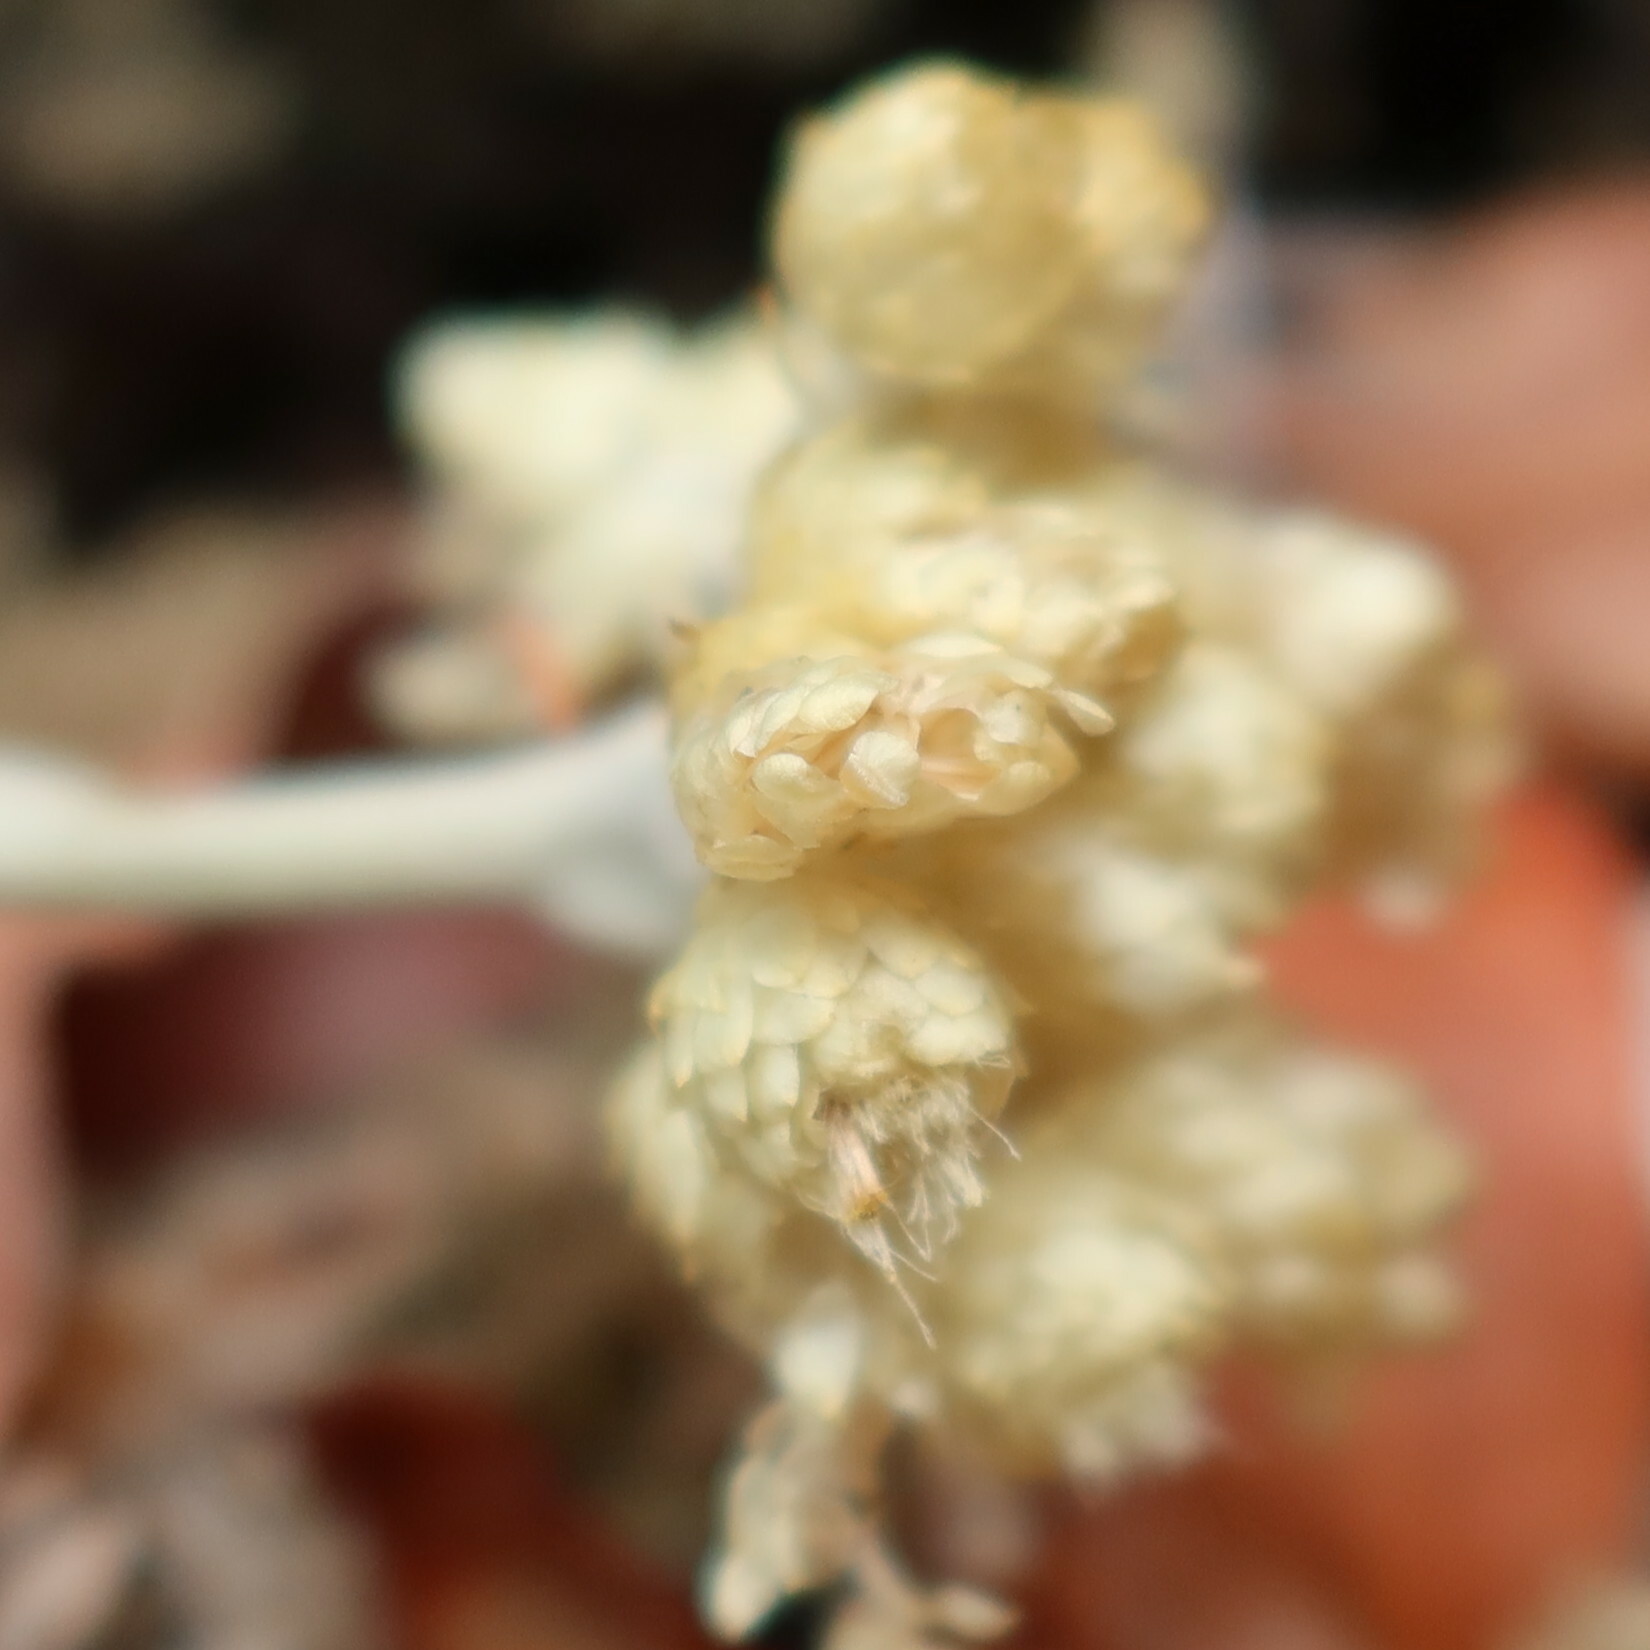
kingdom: Plantae
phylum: Tracheophyta
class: Magnoliopsida
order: Asterales
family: Asteraceae
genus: Helichrysum
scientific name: Helichrysum grandiflorum
